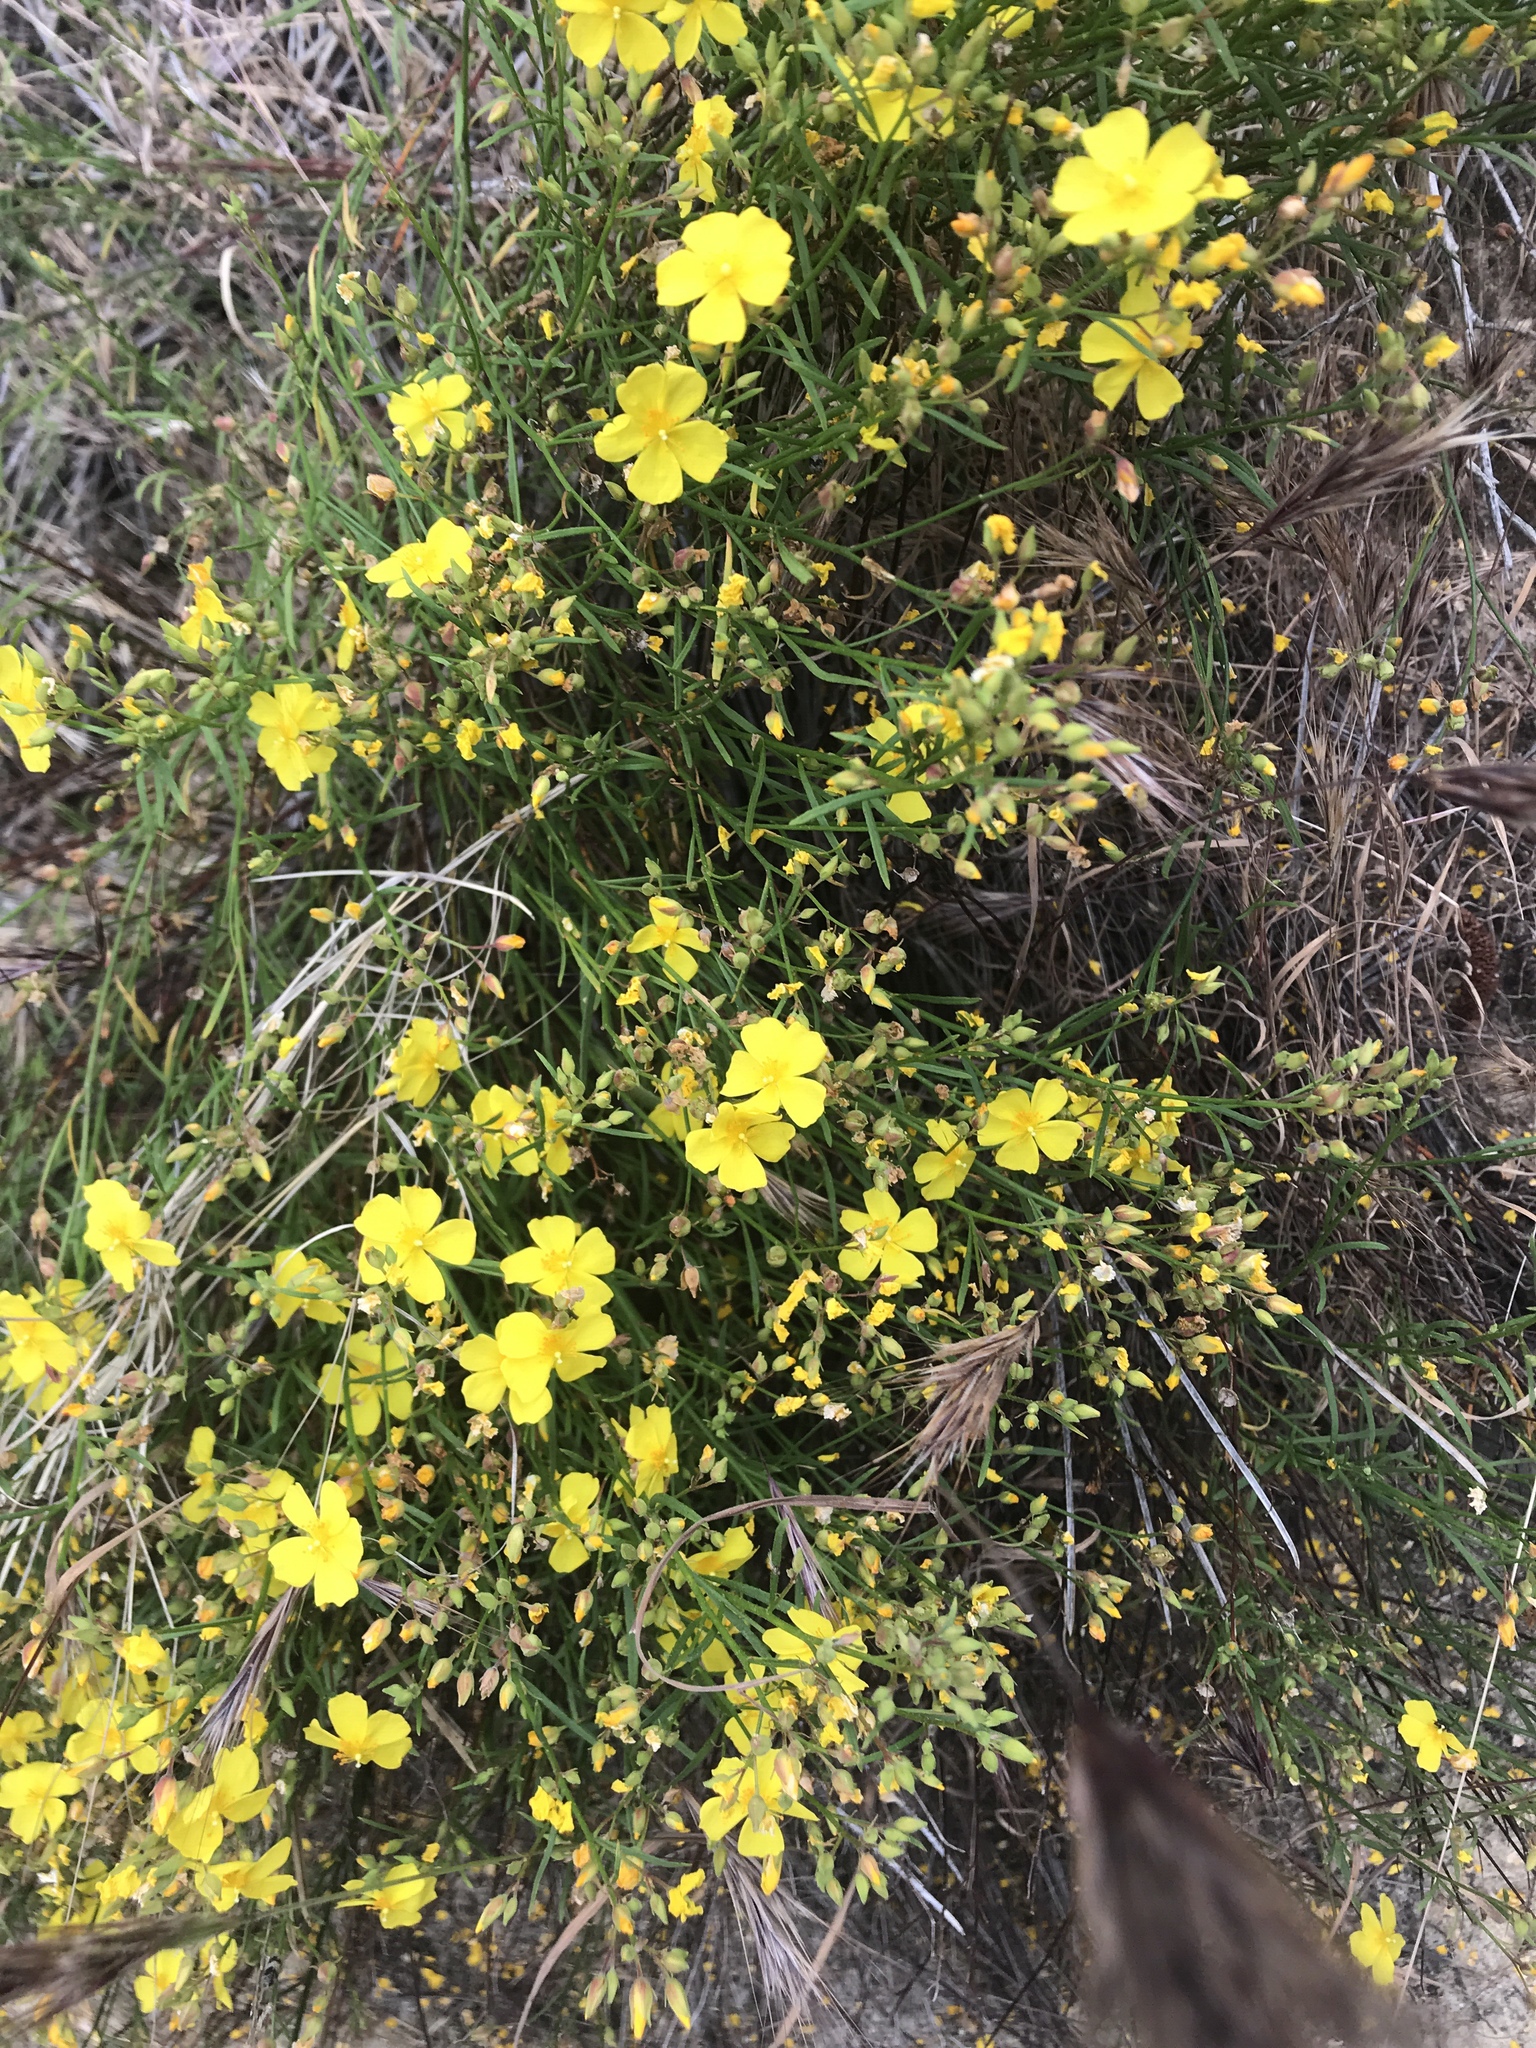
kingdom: Plantae
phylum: Tracheophyta
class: Magnoliopsida
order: Malvales
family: Cistaceae
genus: Crocanthemum
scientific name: Crocanthemum scoparium
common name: Broom-rose
